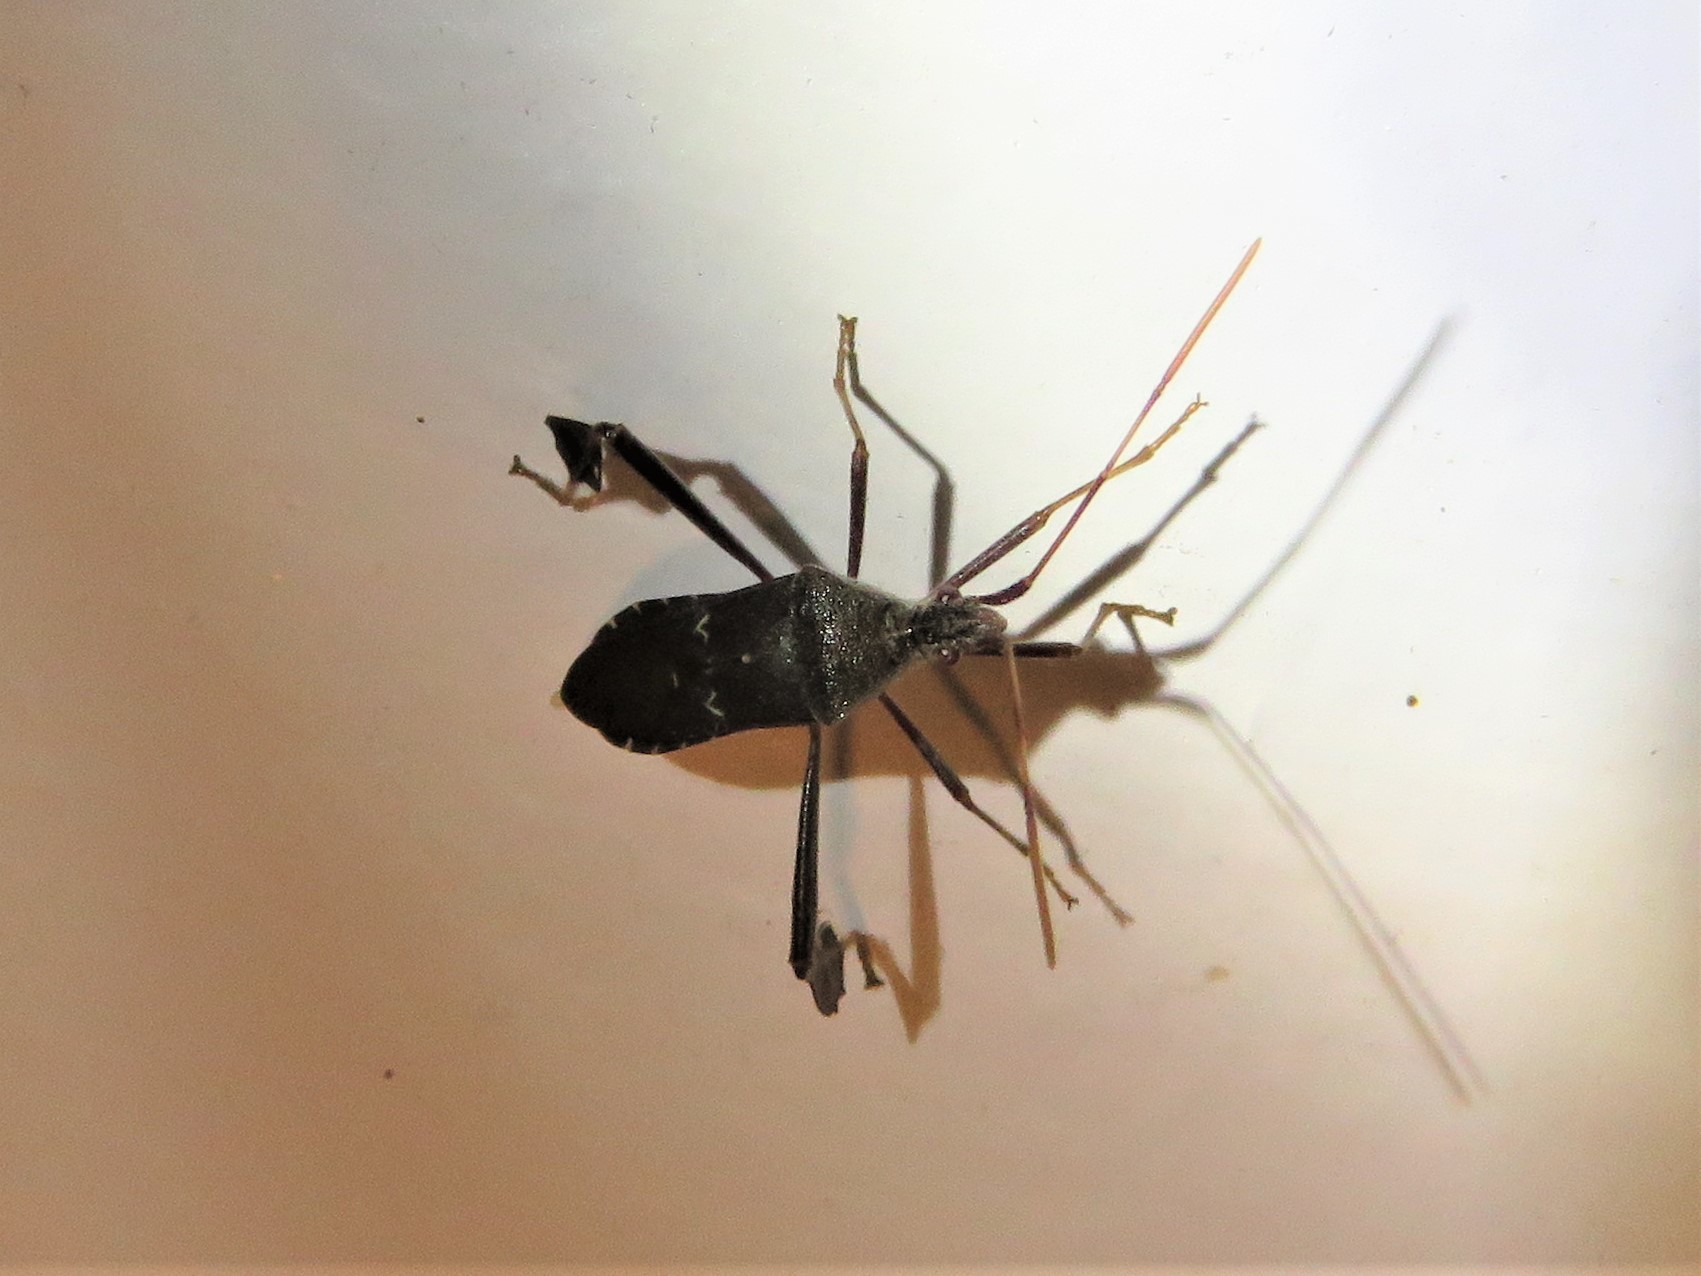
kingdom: Animalia
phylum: Arthropoda
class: Insecta
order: Hemiptera
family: Coreidae
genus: Leptoglossus
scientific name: Leptoglossus oppositus
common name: Northern leaf-footed bug
